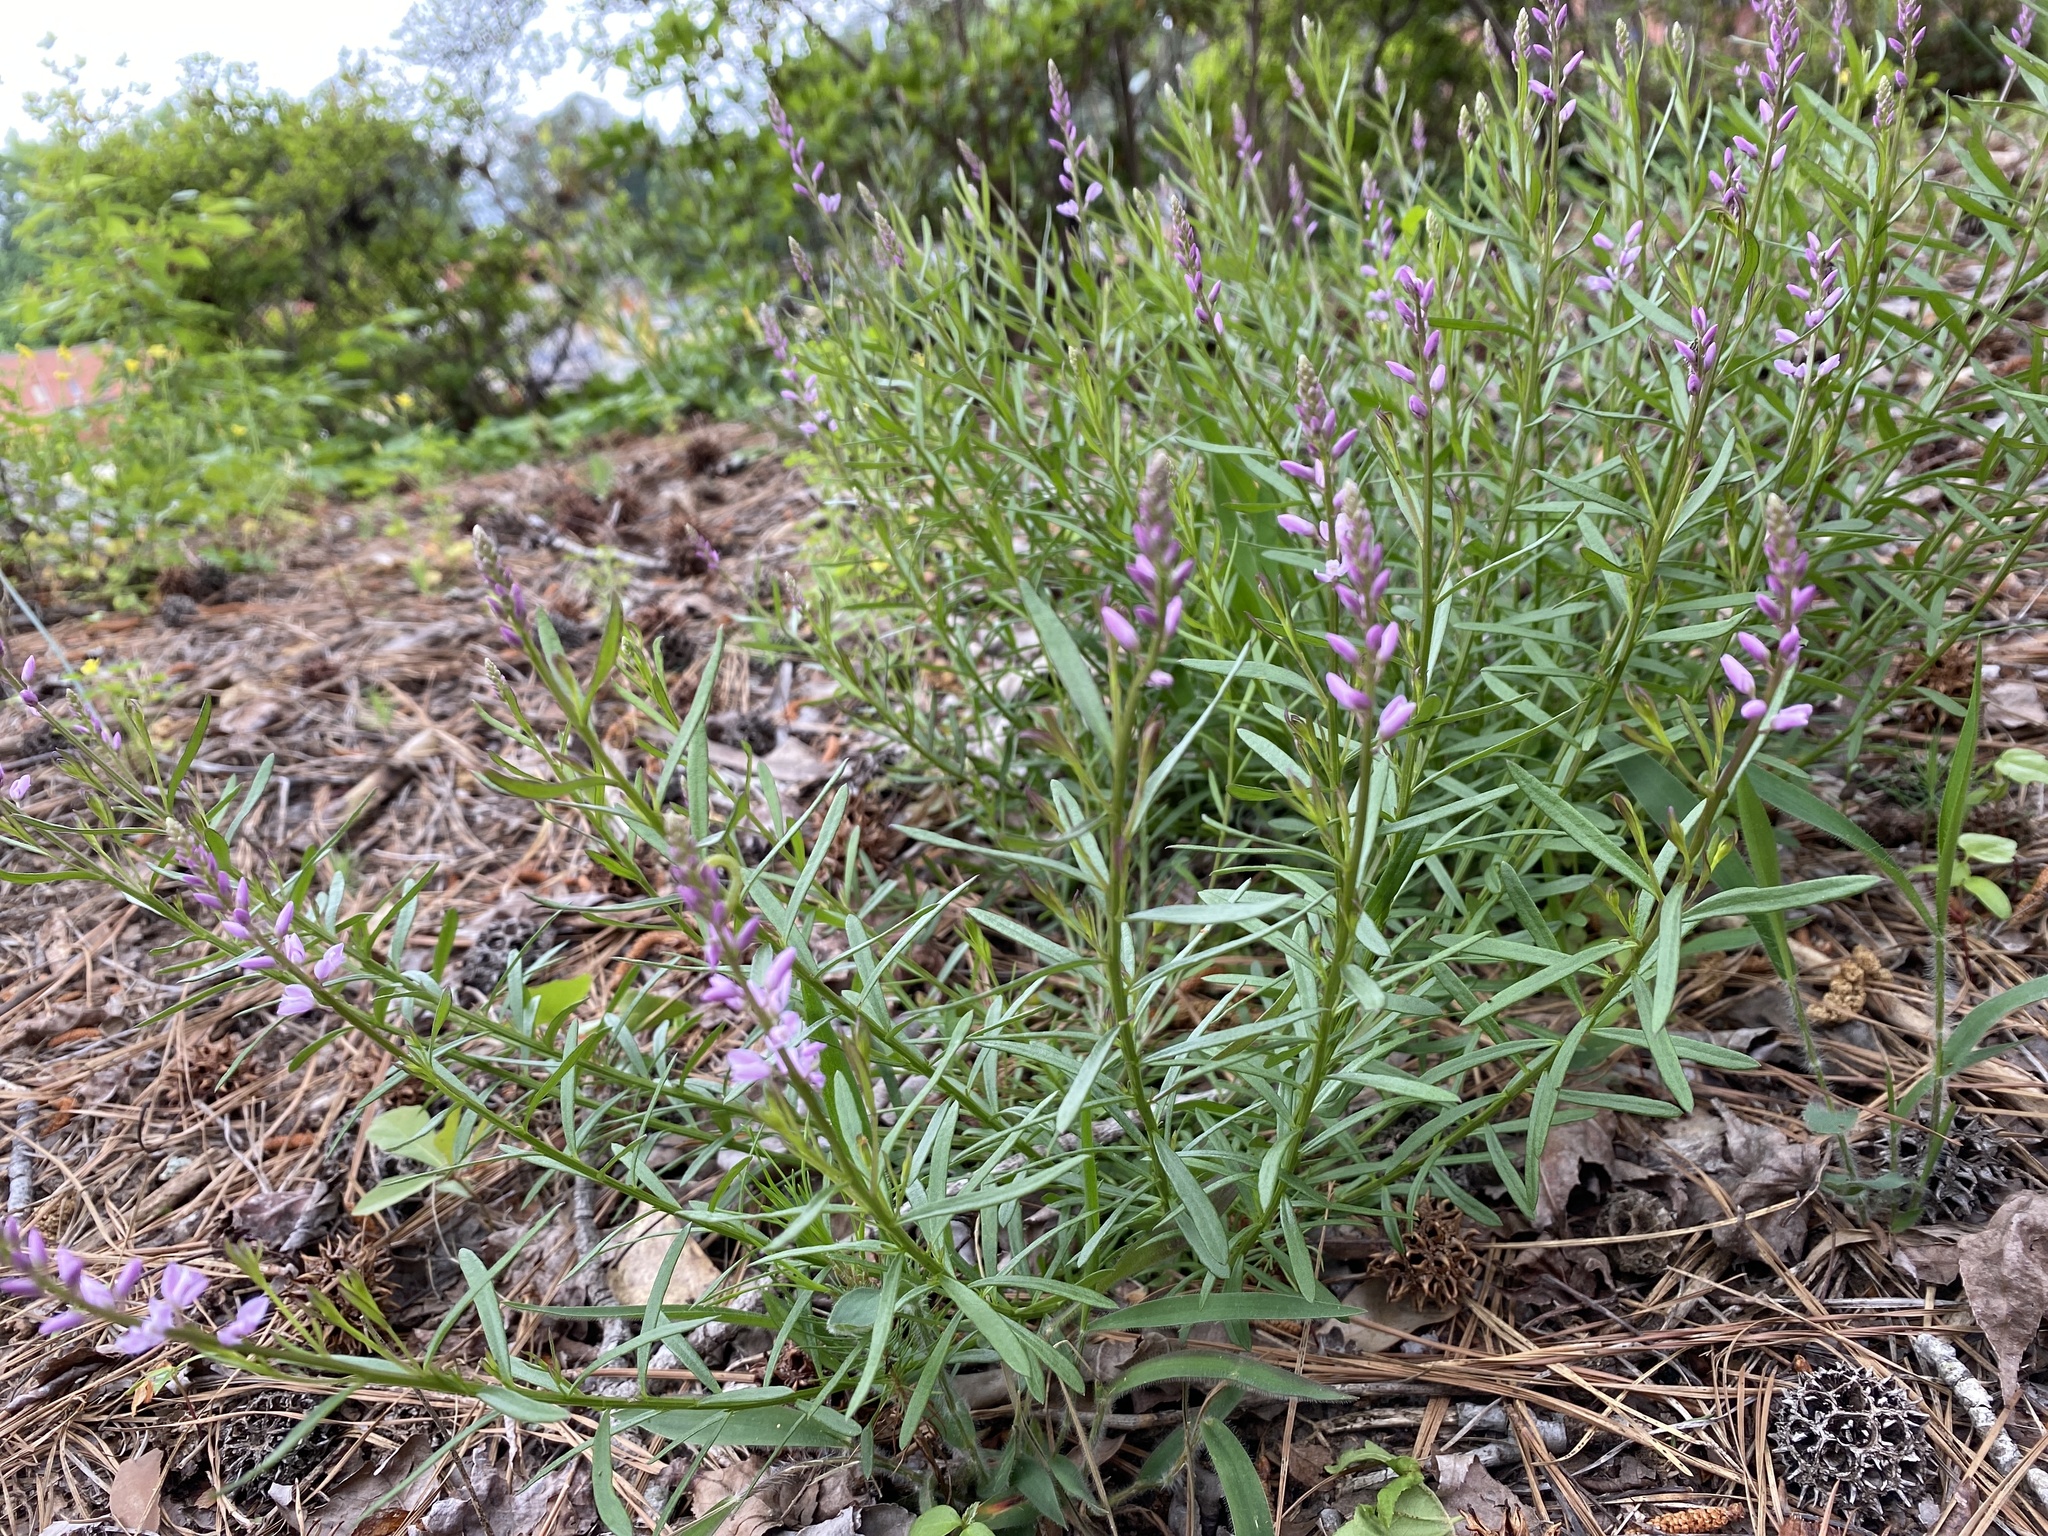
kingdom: Plantae
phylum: Tracheophyta
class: Magnoliopsida
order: Fabales
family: Polygalaceae
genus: Polygala
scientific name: Polygala polygama
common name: Bitter milkwort
